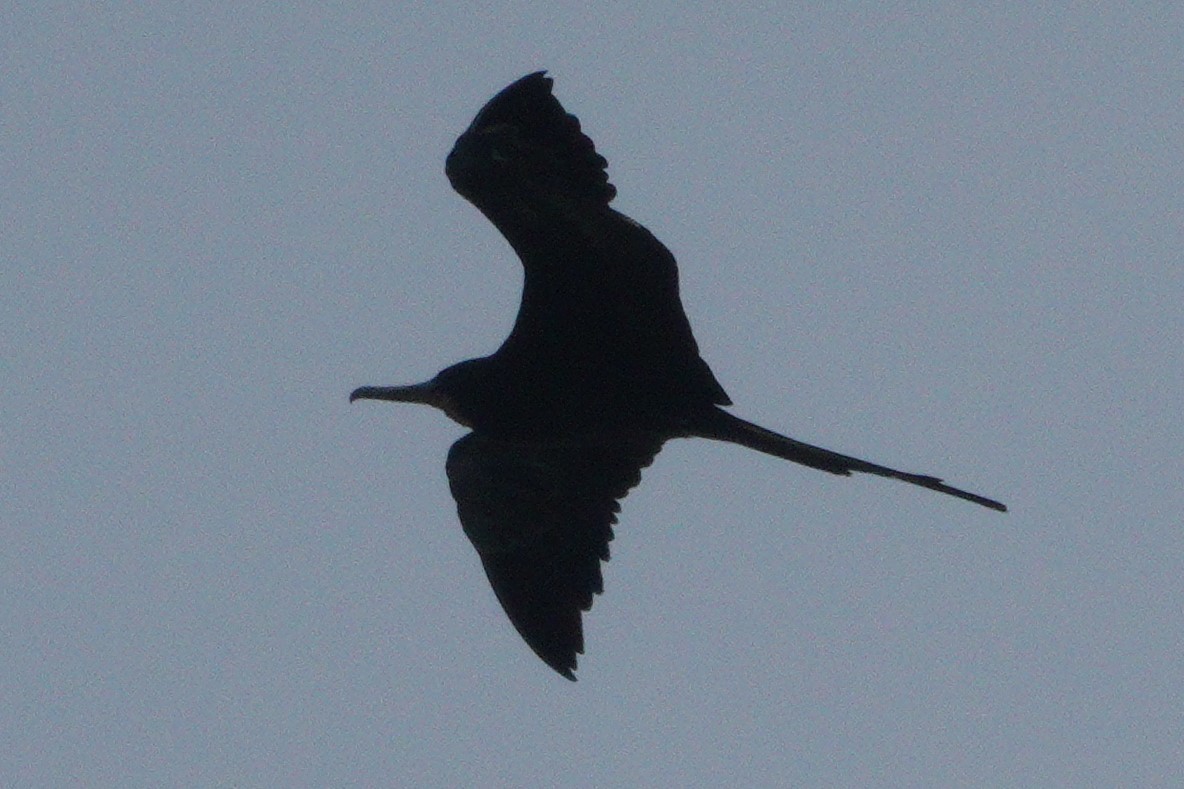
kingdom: Animalia
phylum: Chordata
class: Aves
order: Suliformes
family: Fregatidae
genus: Fregata
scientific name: Fregata magnificens
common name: Magnificent frigatebird
